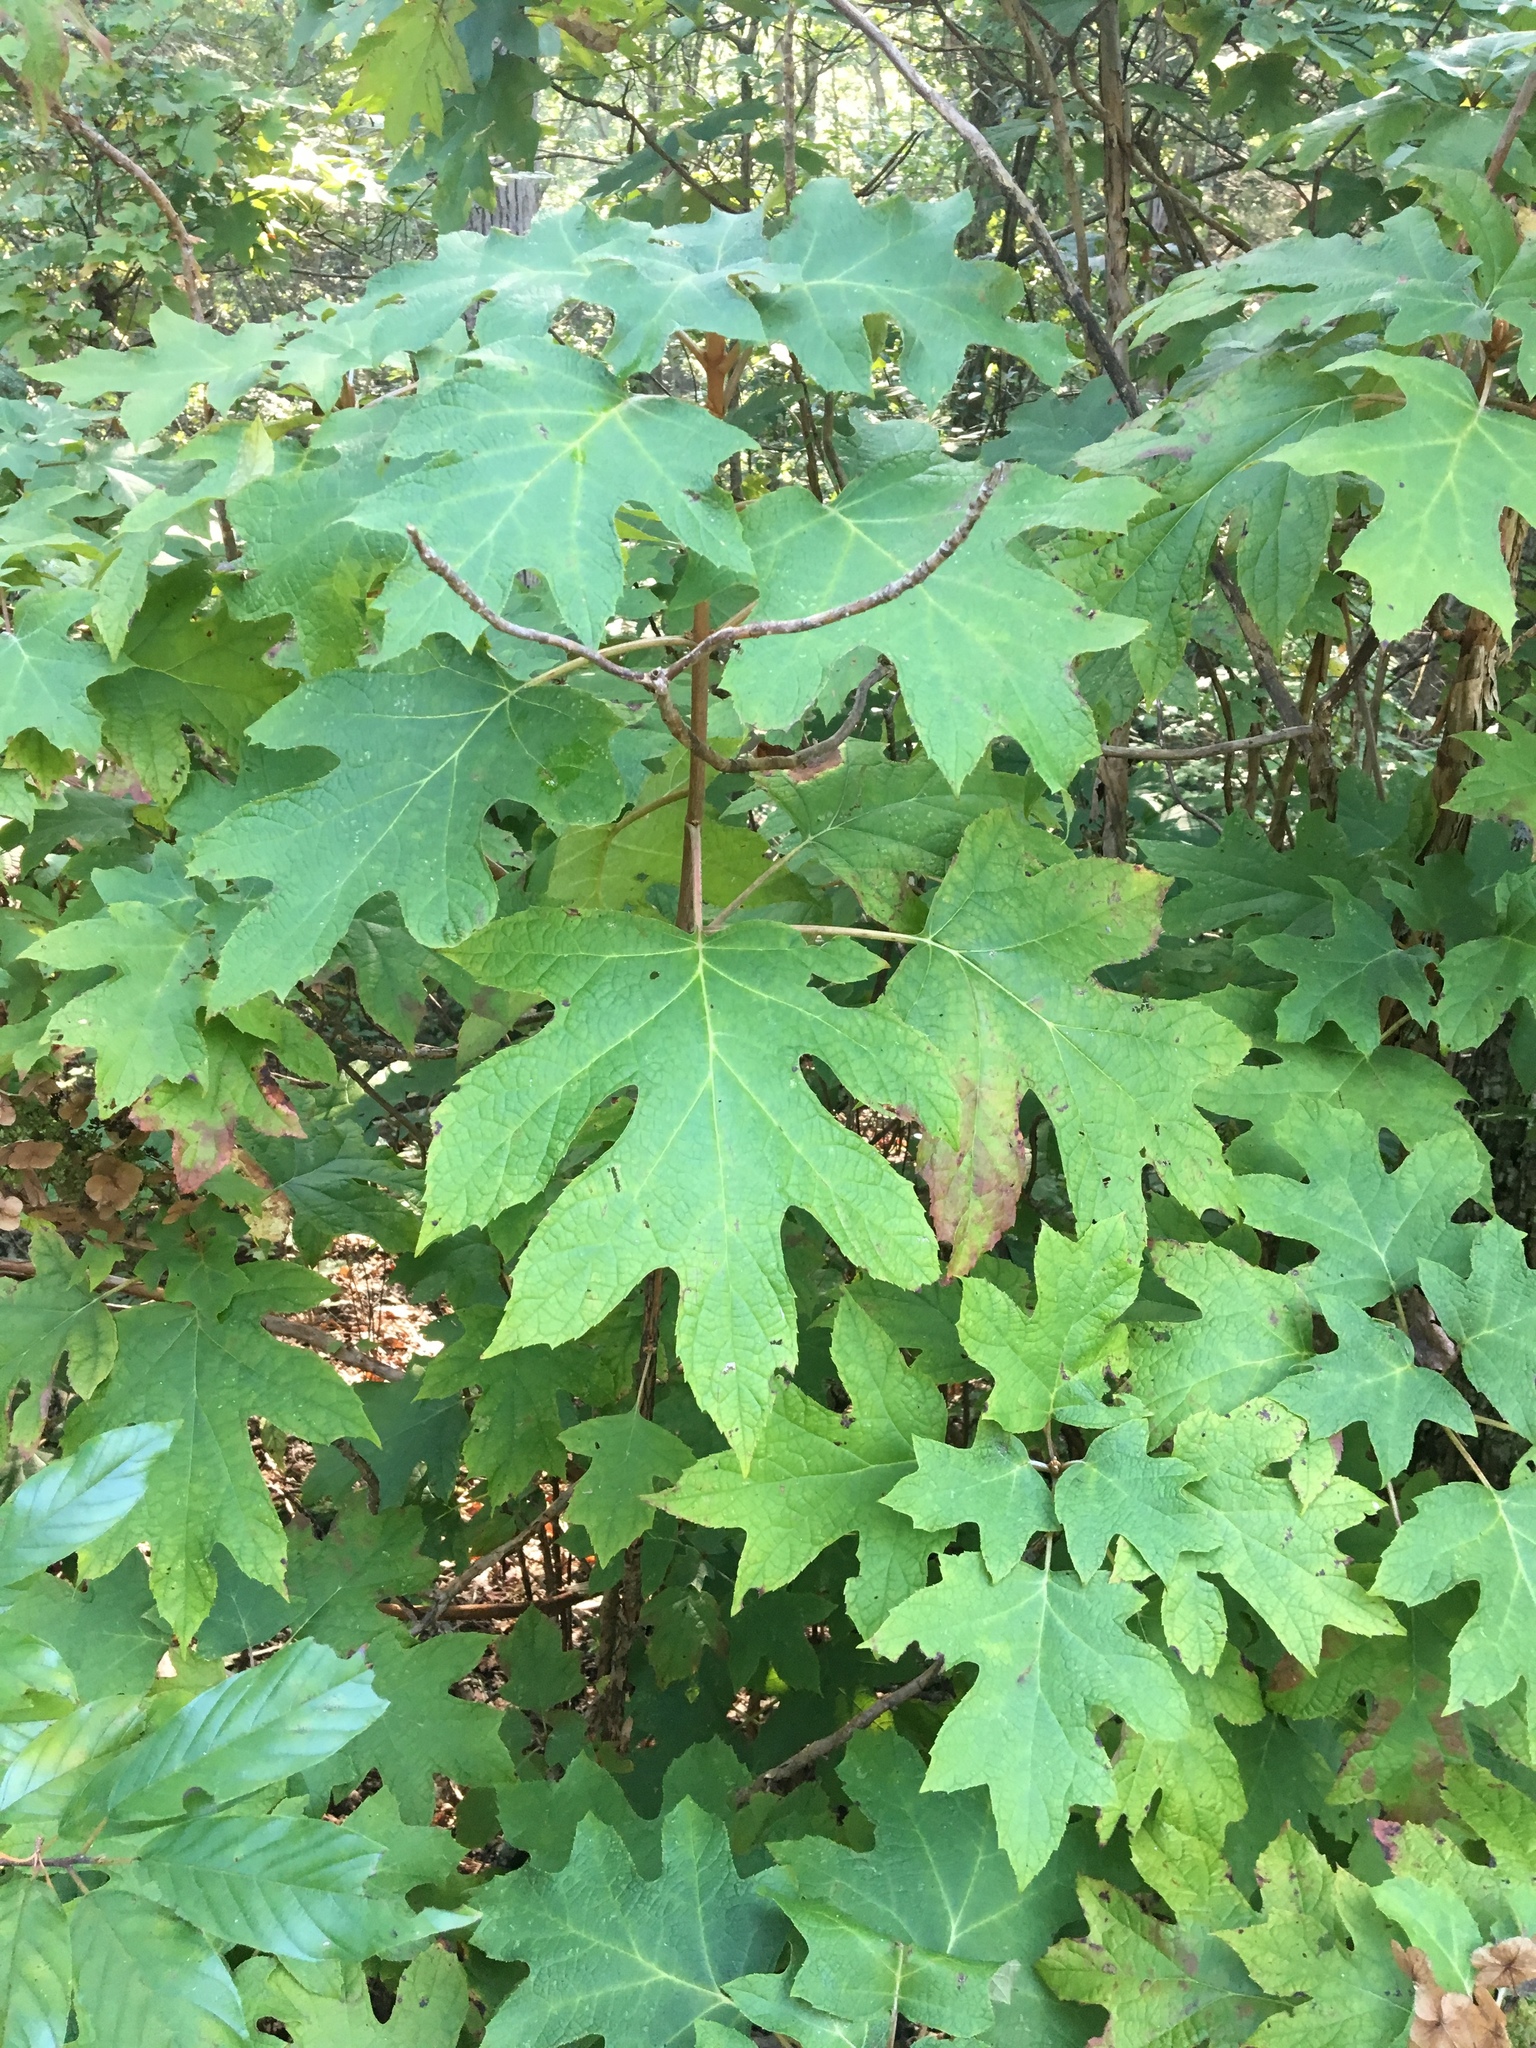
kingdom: Plantae
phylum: Tracheophyta
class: Magnoliopsida
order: Cornales
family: Hydrangeaceae
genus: Hydrangea
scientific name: Hydrangea quercifolia
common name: Oak-leaf hydrangea
